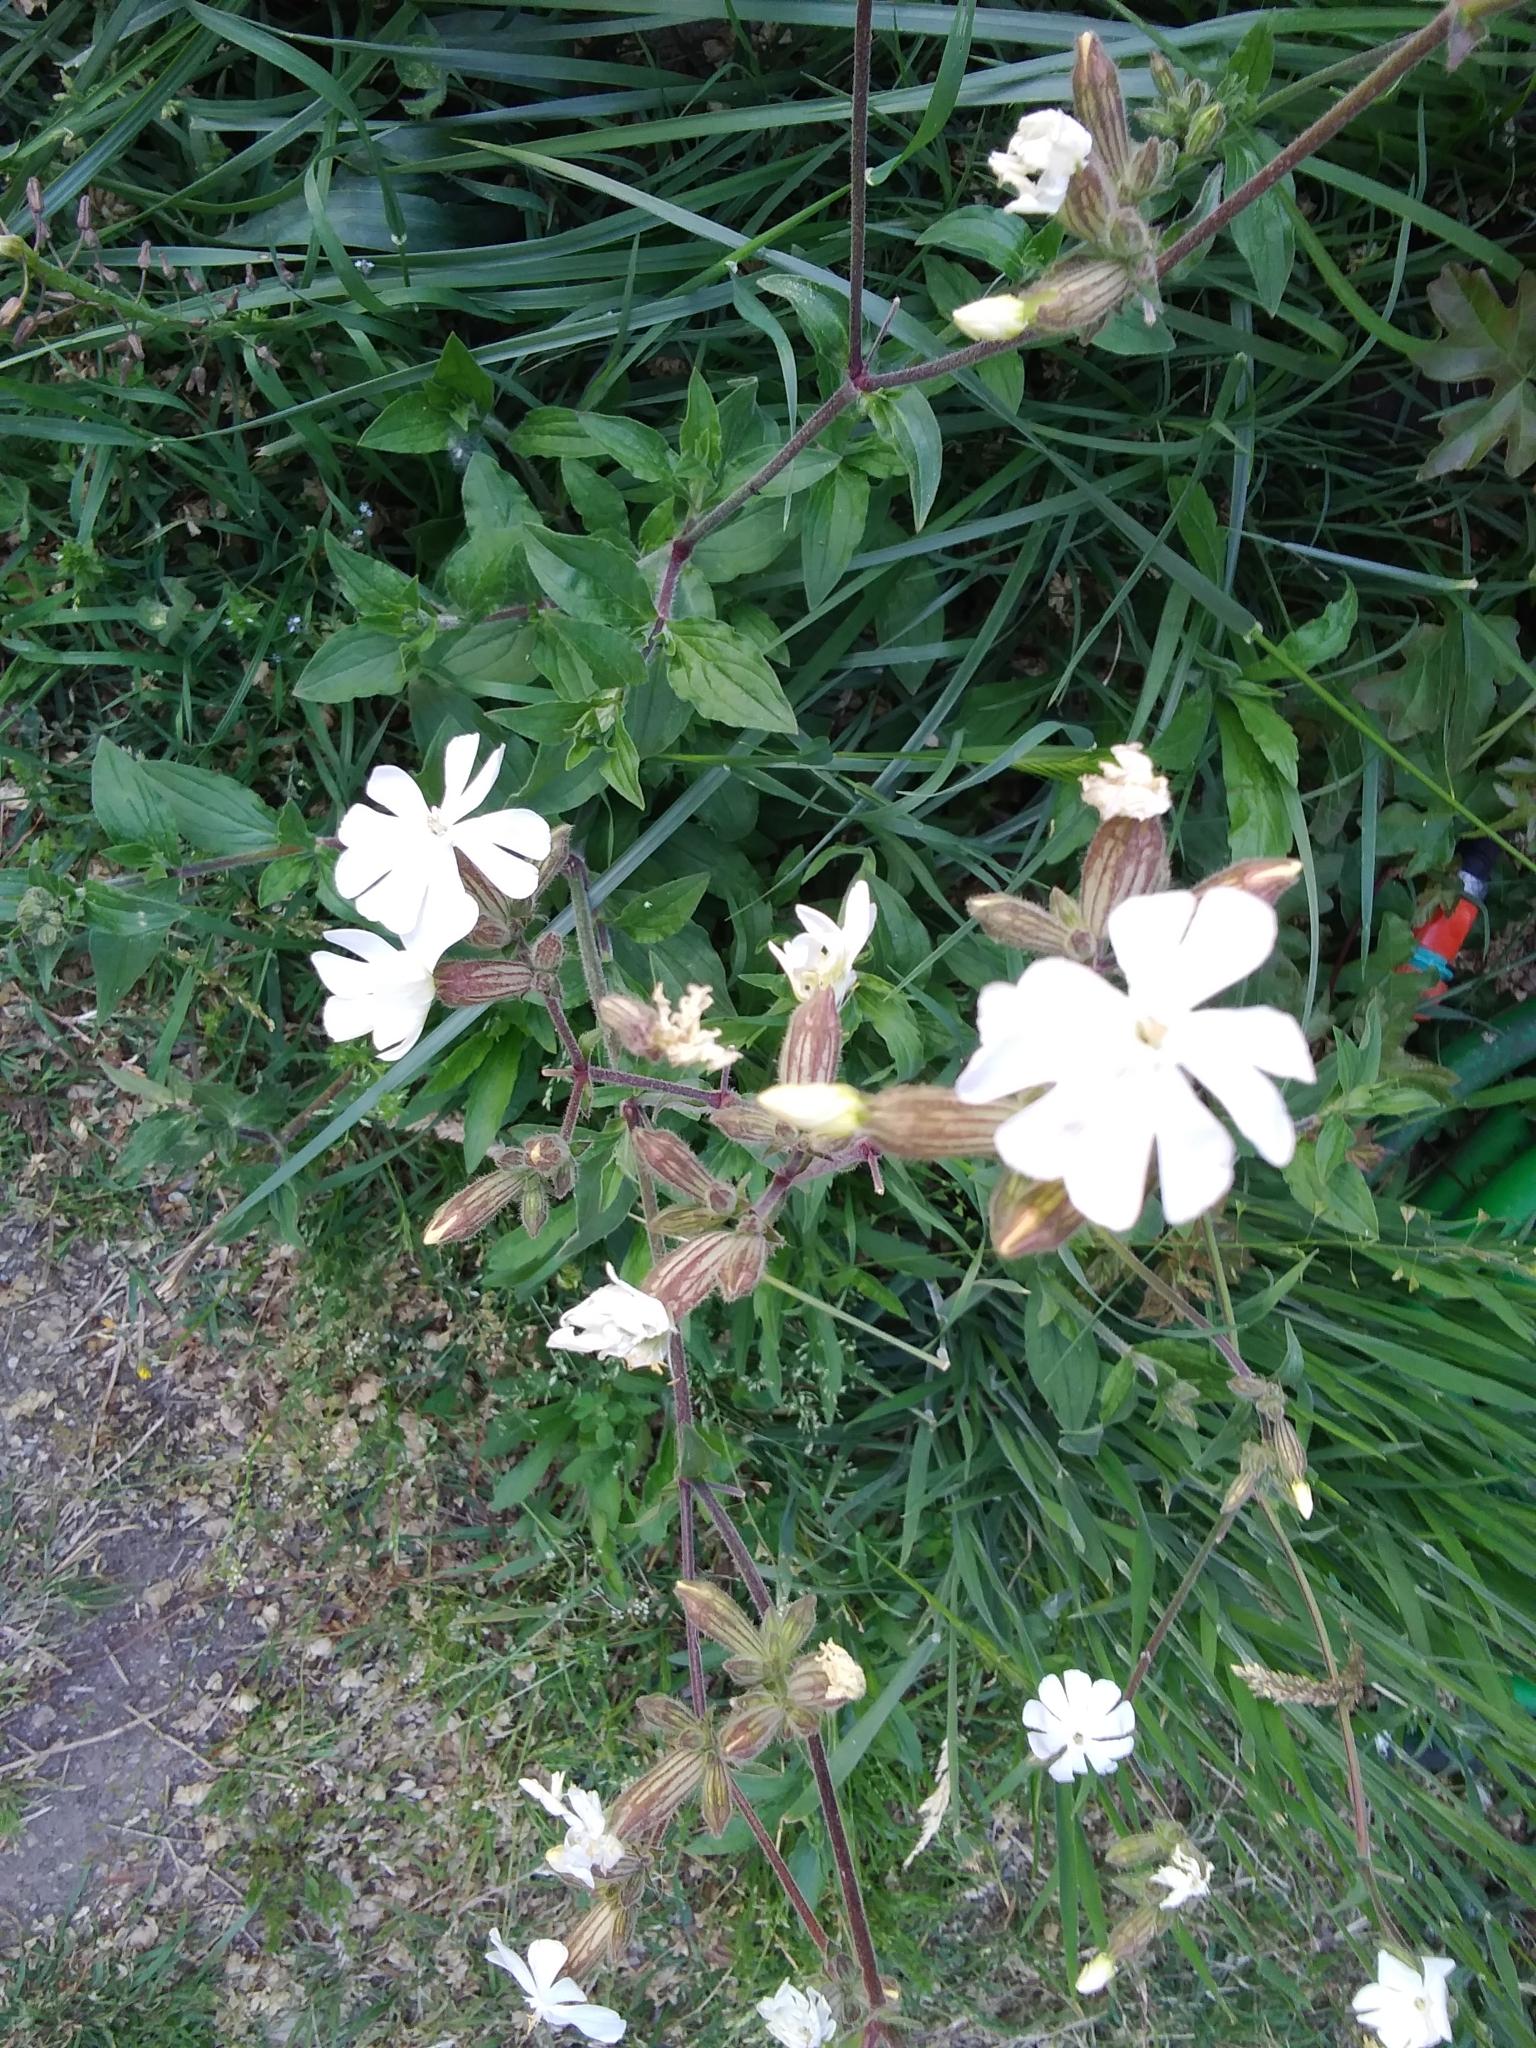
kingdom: Plantae
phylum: Tracheophyta
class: Magnoliopsida
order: Caryophyllales
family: Caryophyllaceae
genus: Silene
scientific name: Silene latifolia
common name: White campion
